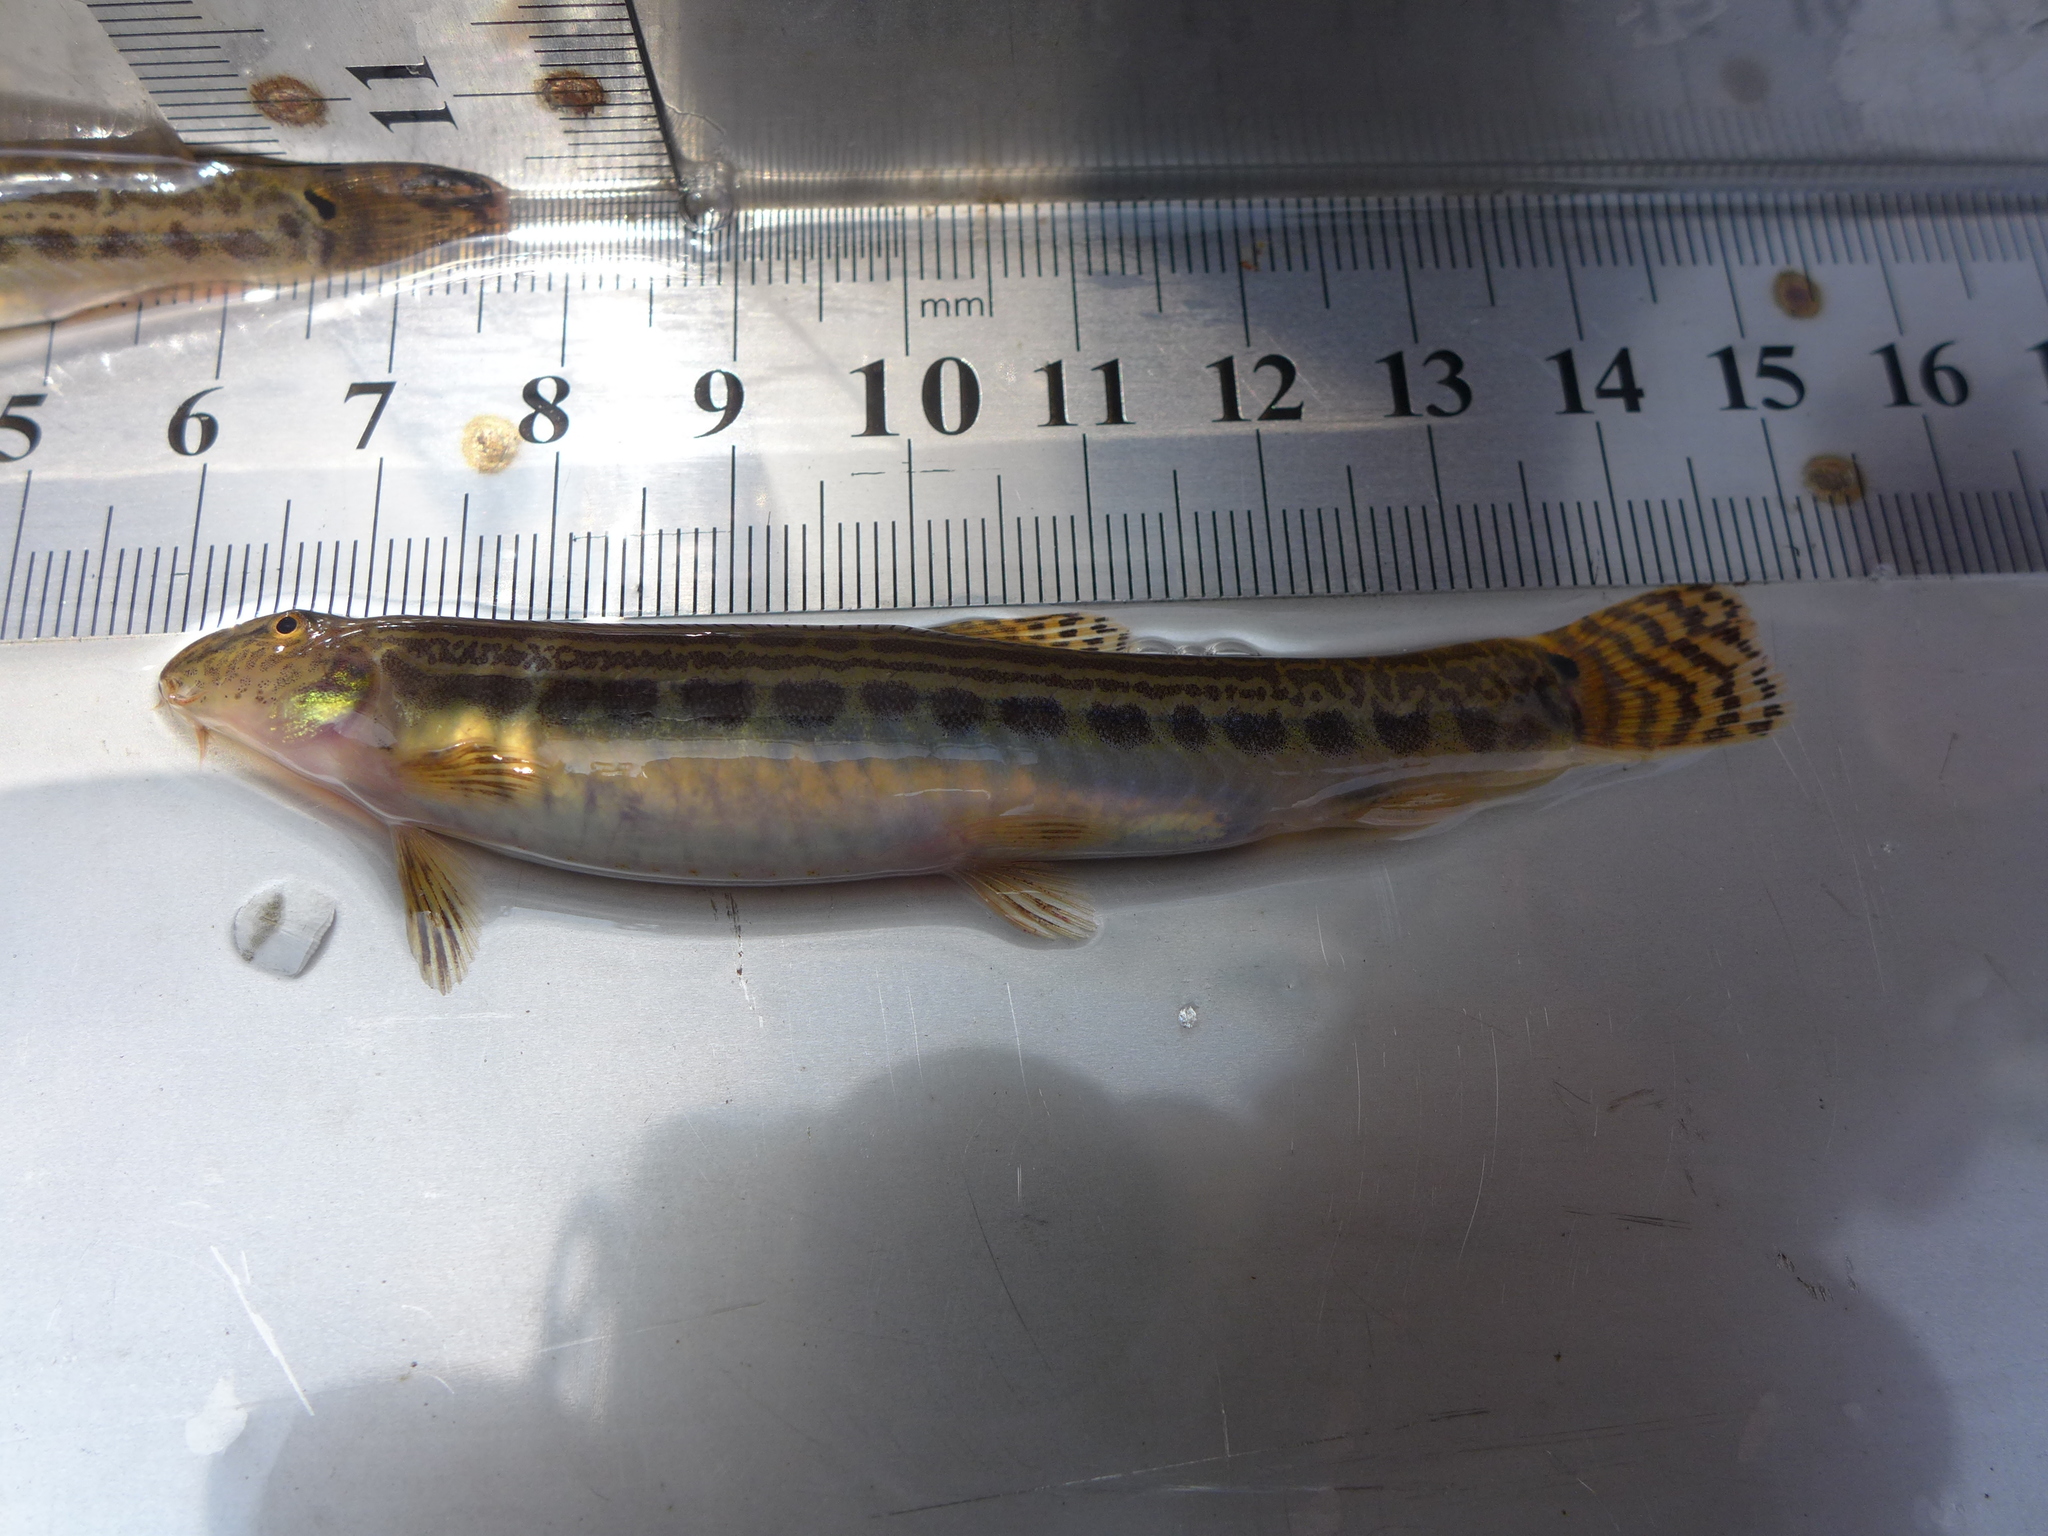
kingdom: Animalia
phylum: Chordata
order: Cypriniformes
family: Cobitidae
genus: Cobitis
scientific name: Cobitis sinensis
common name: Siberian spiny loach
